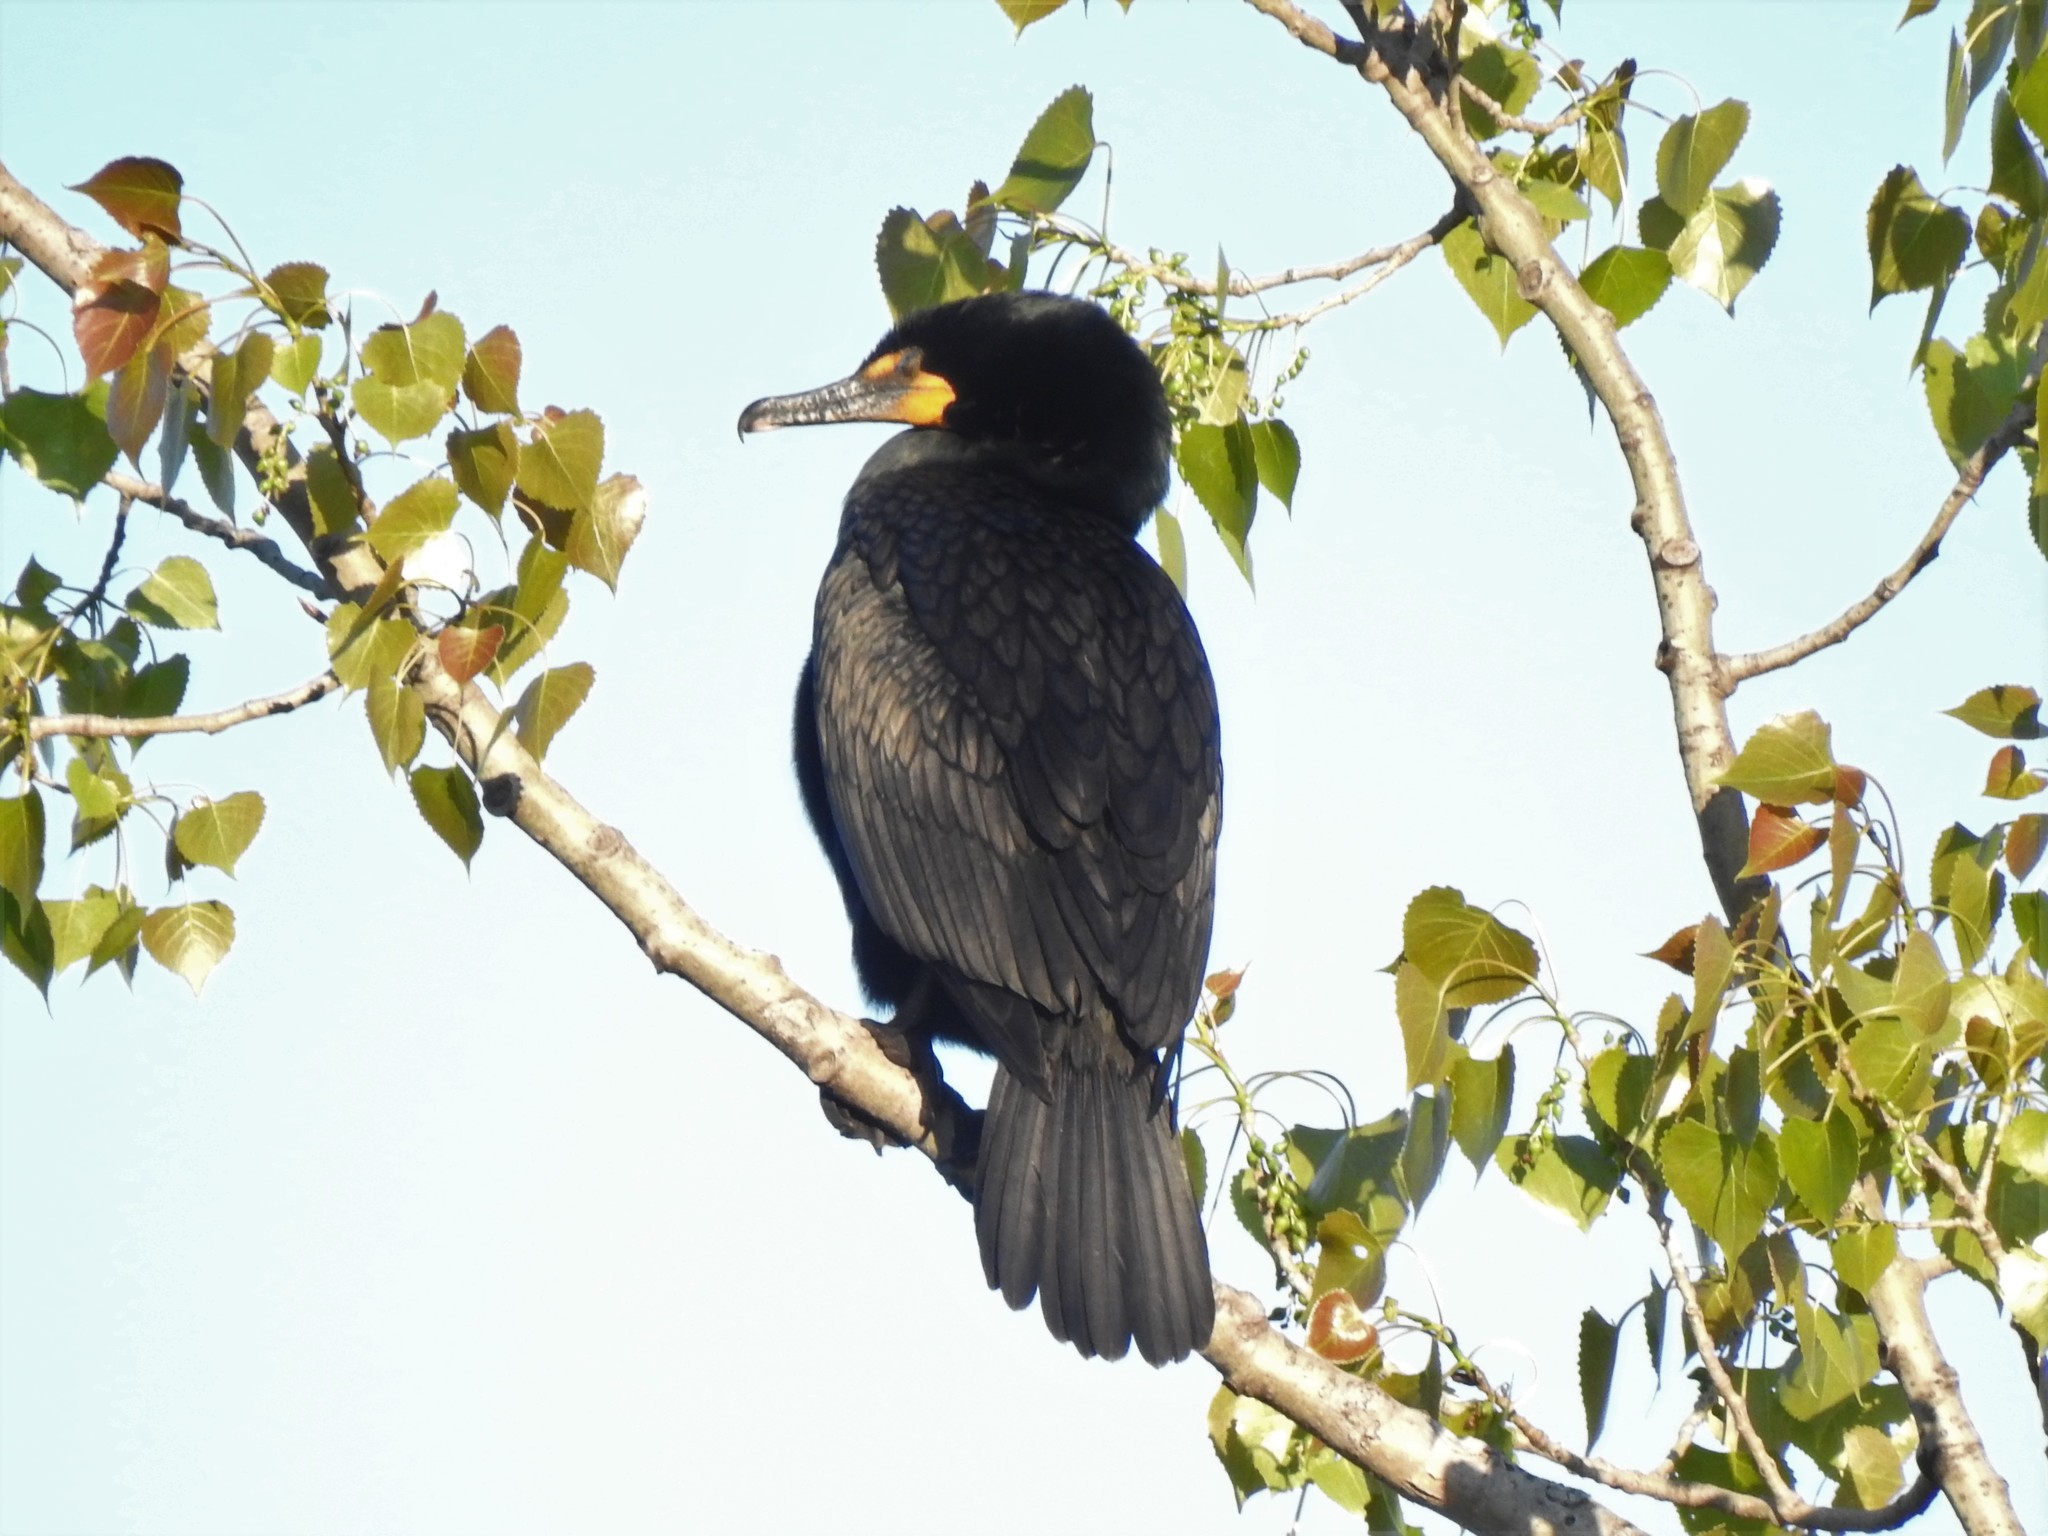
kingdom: Animalia
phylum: Chordata
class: Aves
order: Suliformes
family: Phalacrocoracidae
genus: Phalacrocorax
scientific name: Phalacrocorax auritus
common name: Double-crested cormorant
